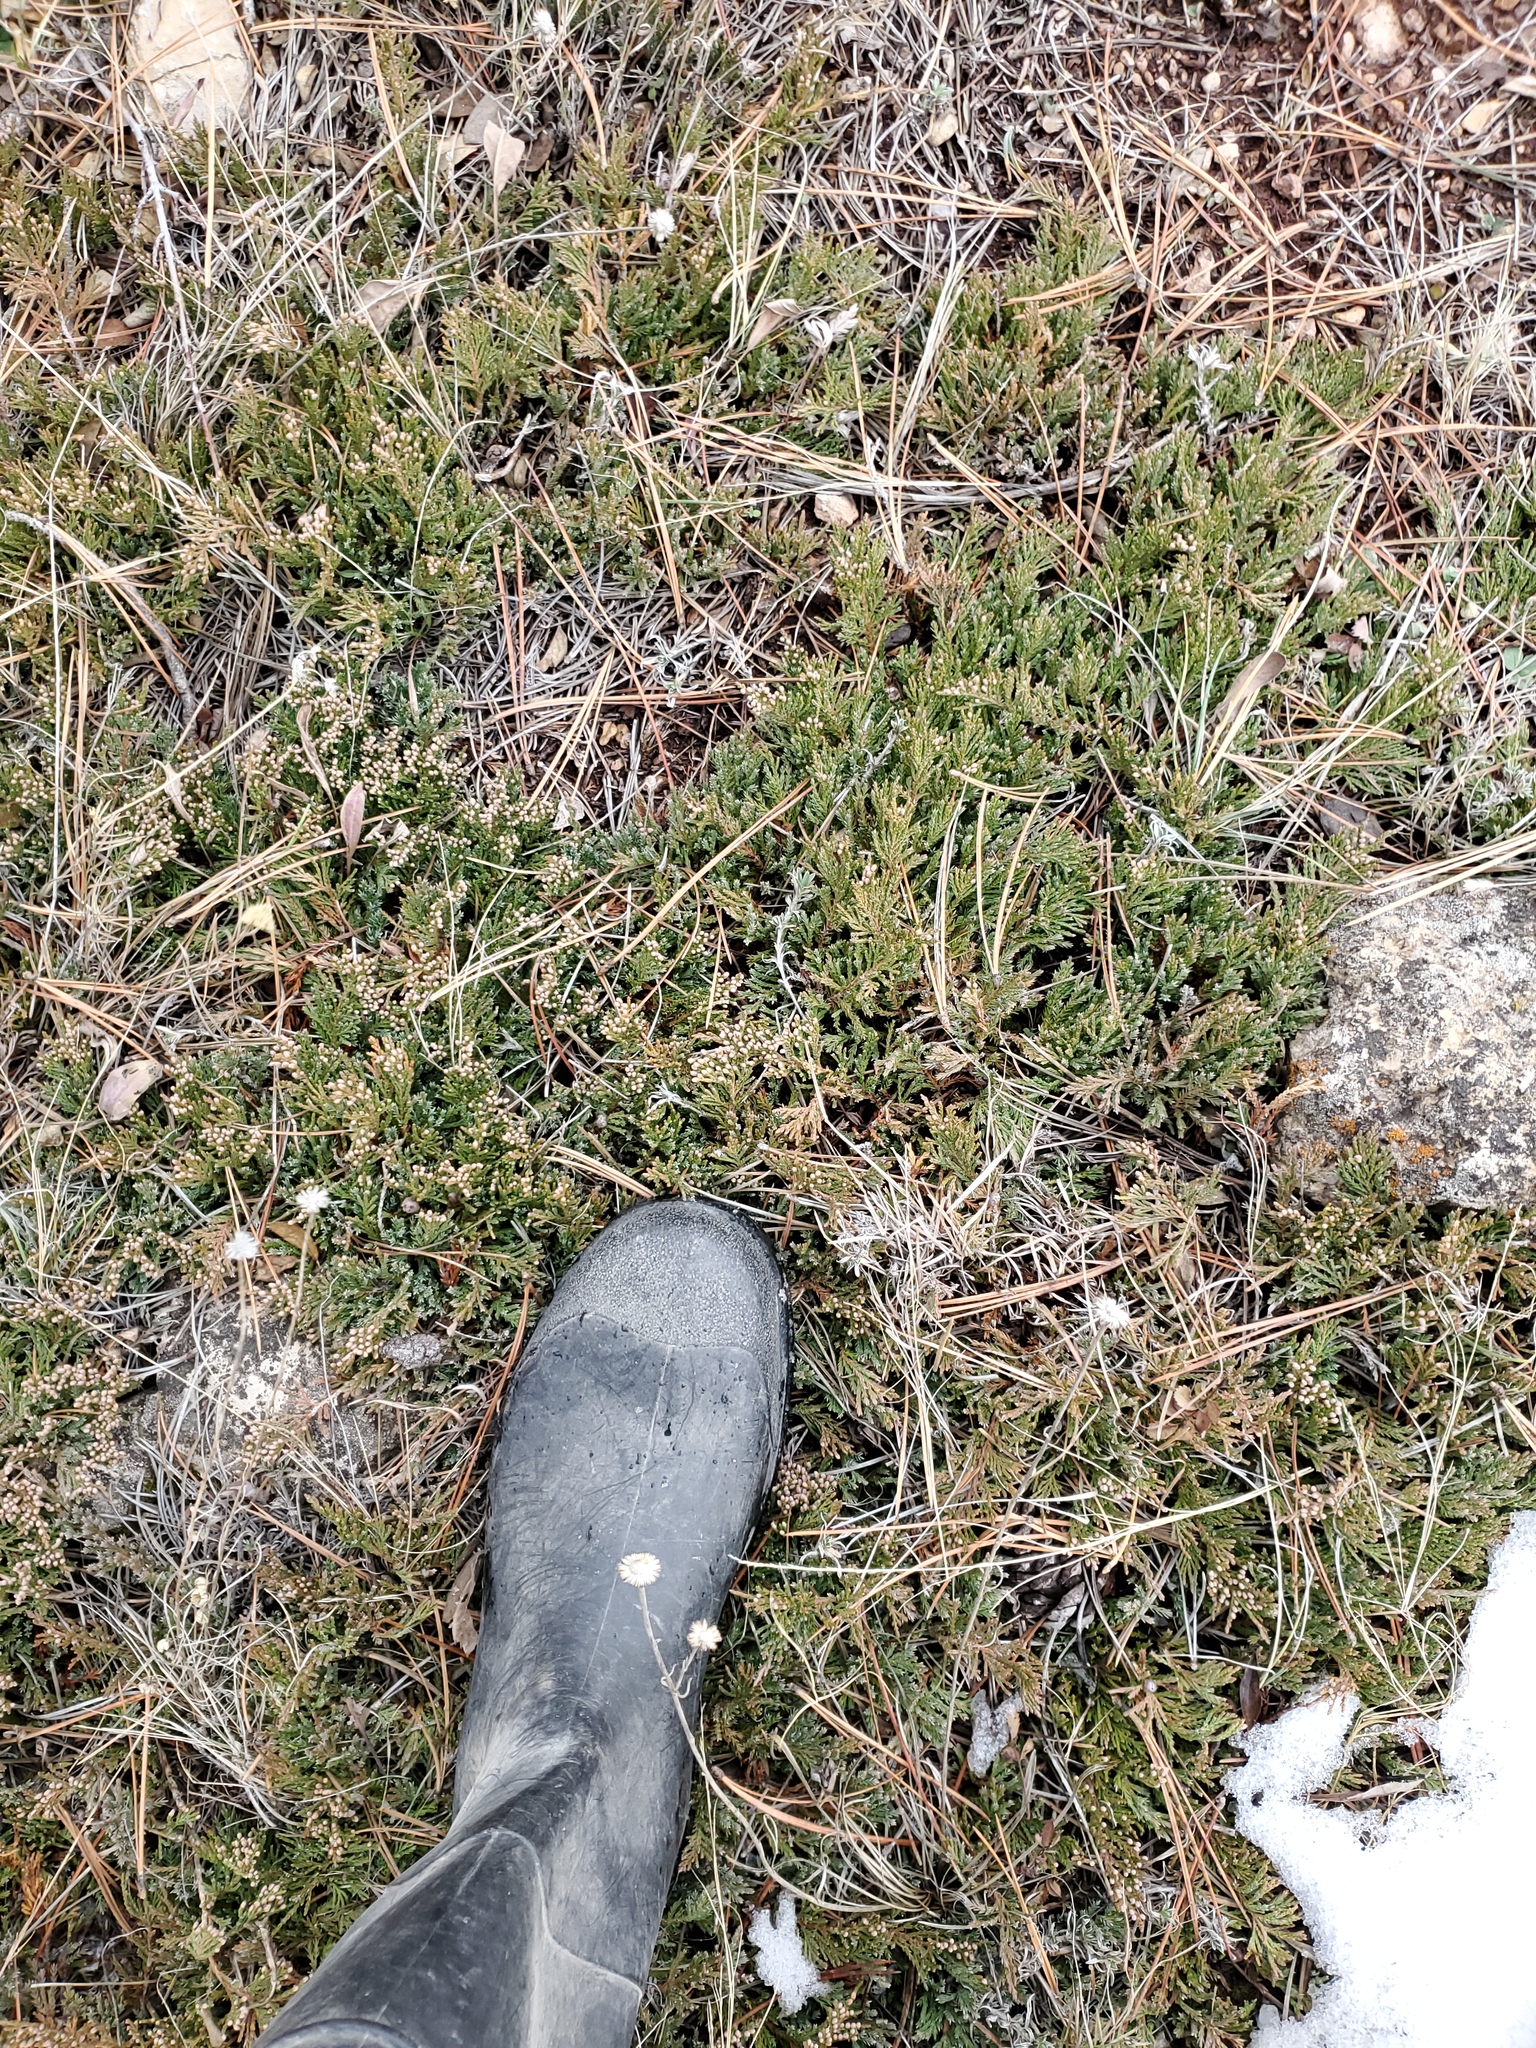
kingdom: Plantae
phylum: Tracheophyta
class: Pinopsida
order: Pinales
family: Cupressaceae
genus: Juniperus
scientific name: Juniperus horizontalis
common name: Creeping juniper
